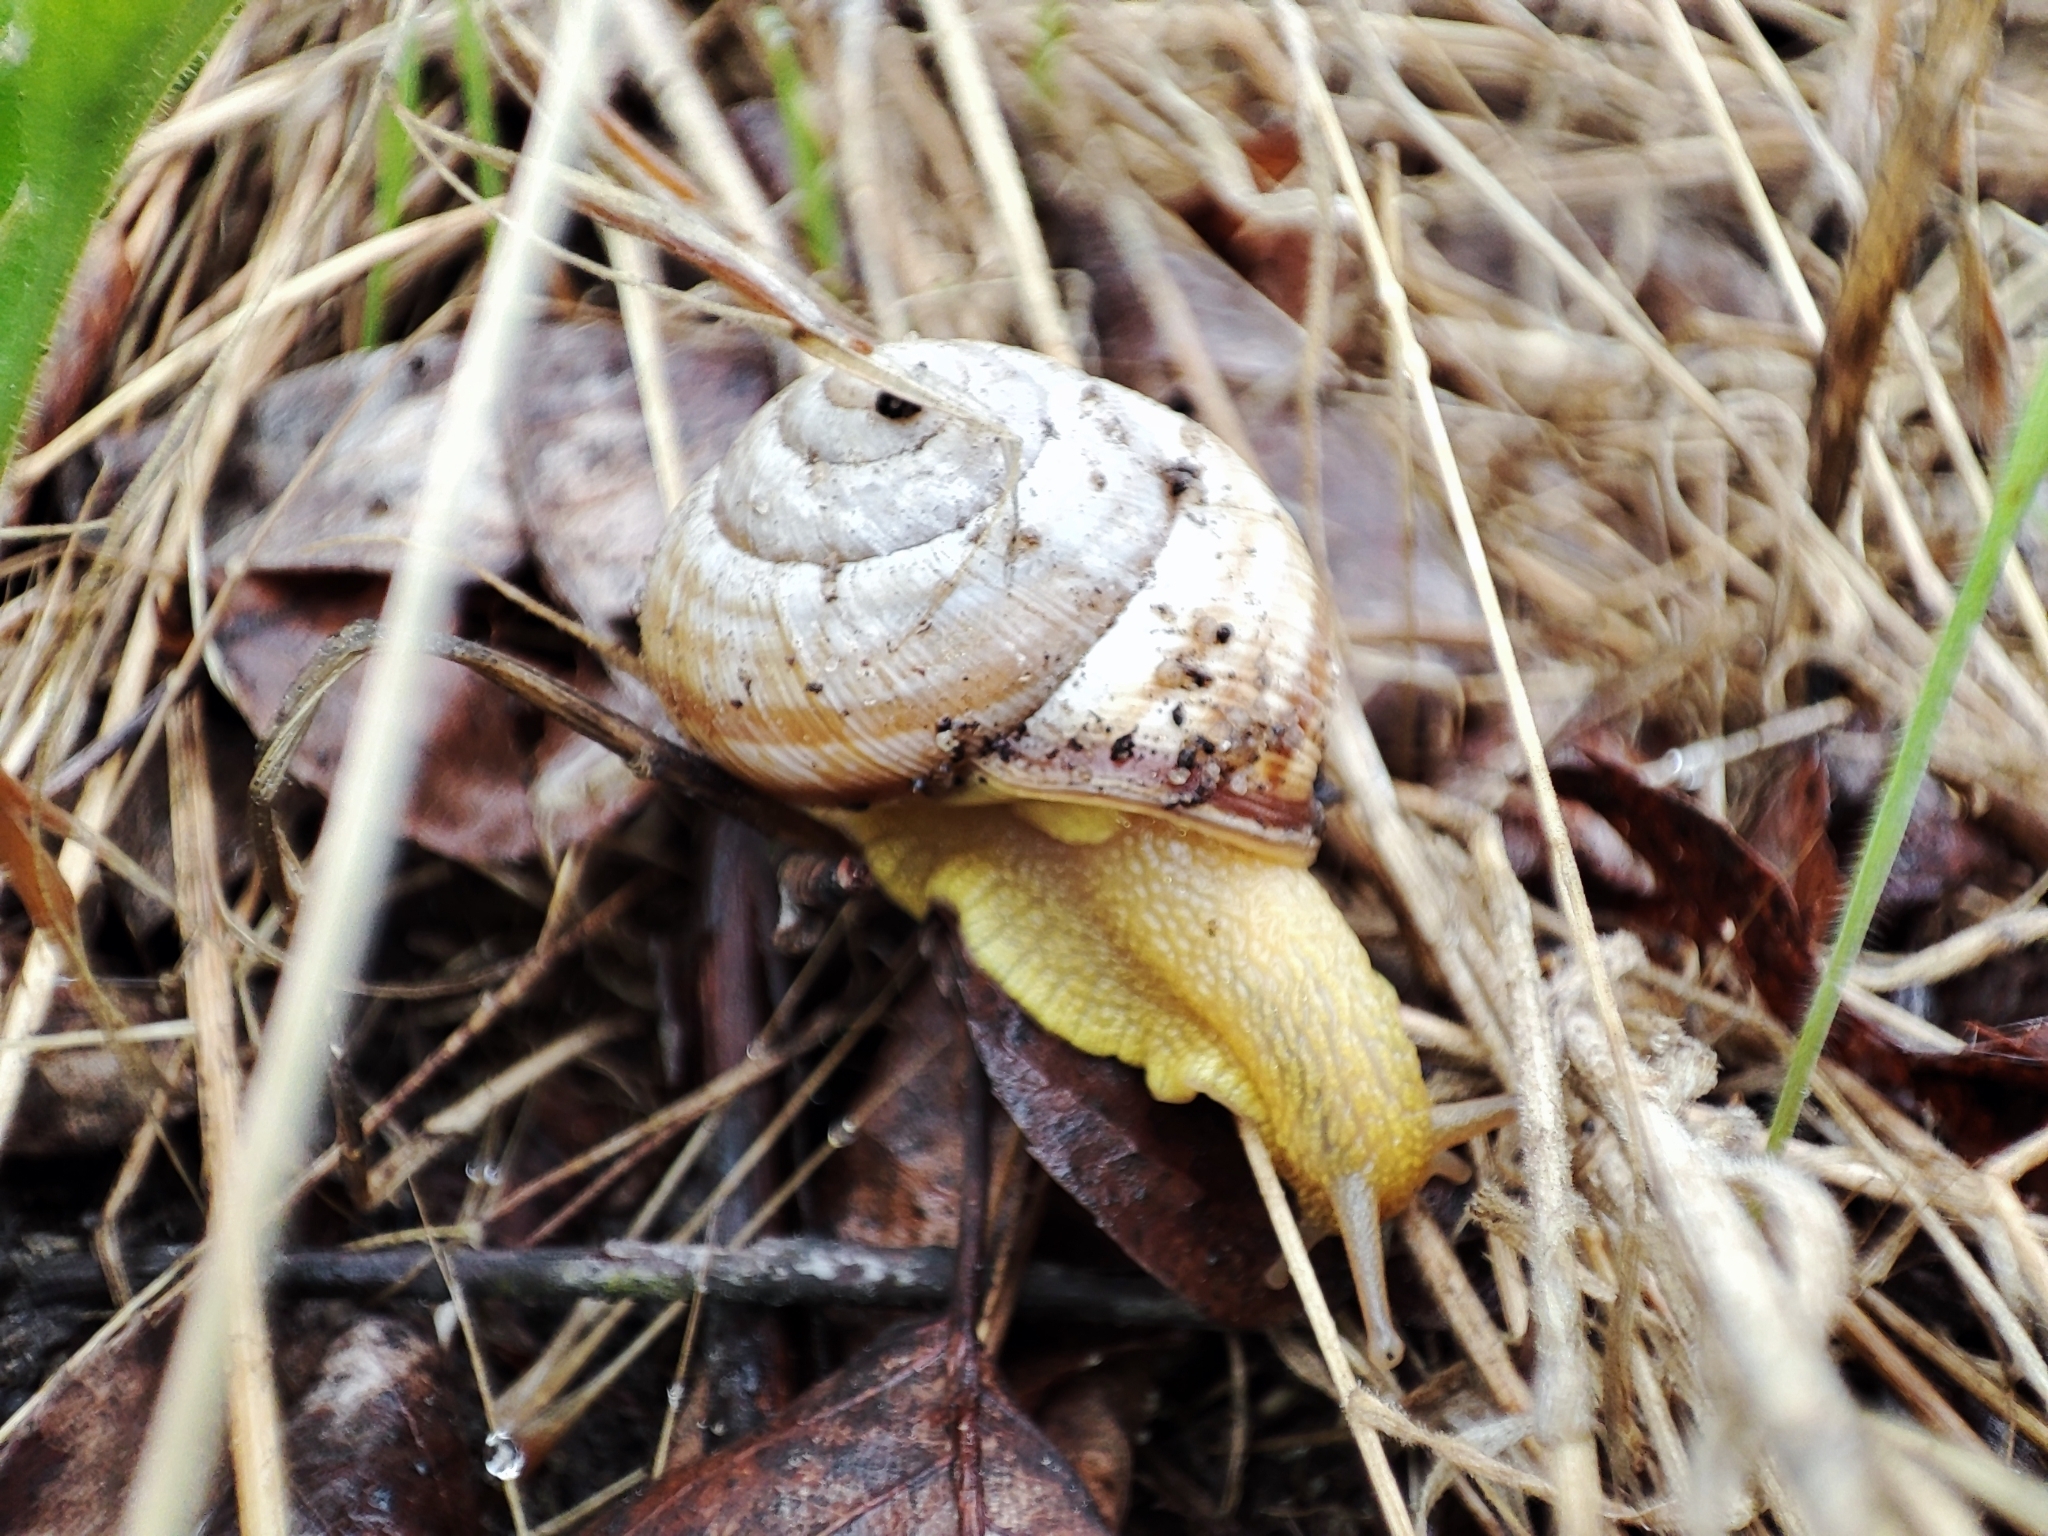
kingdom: Animalia
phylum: Mollusca
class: Gastropoda
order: Stylommatophora
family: Helicidae
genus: Caucasotachea
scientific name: Caucasotachea vindobonensis
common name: European helicid land snail
